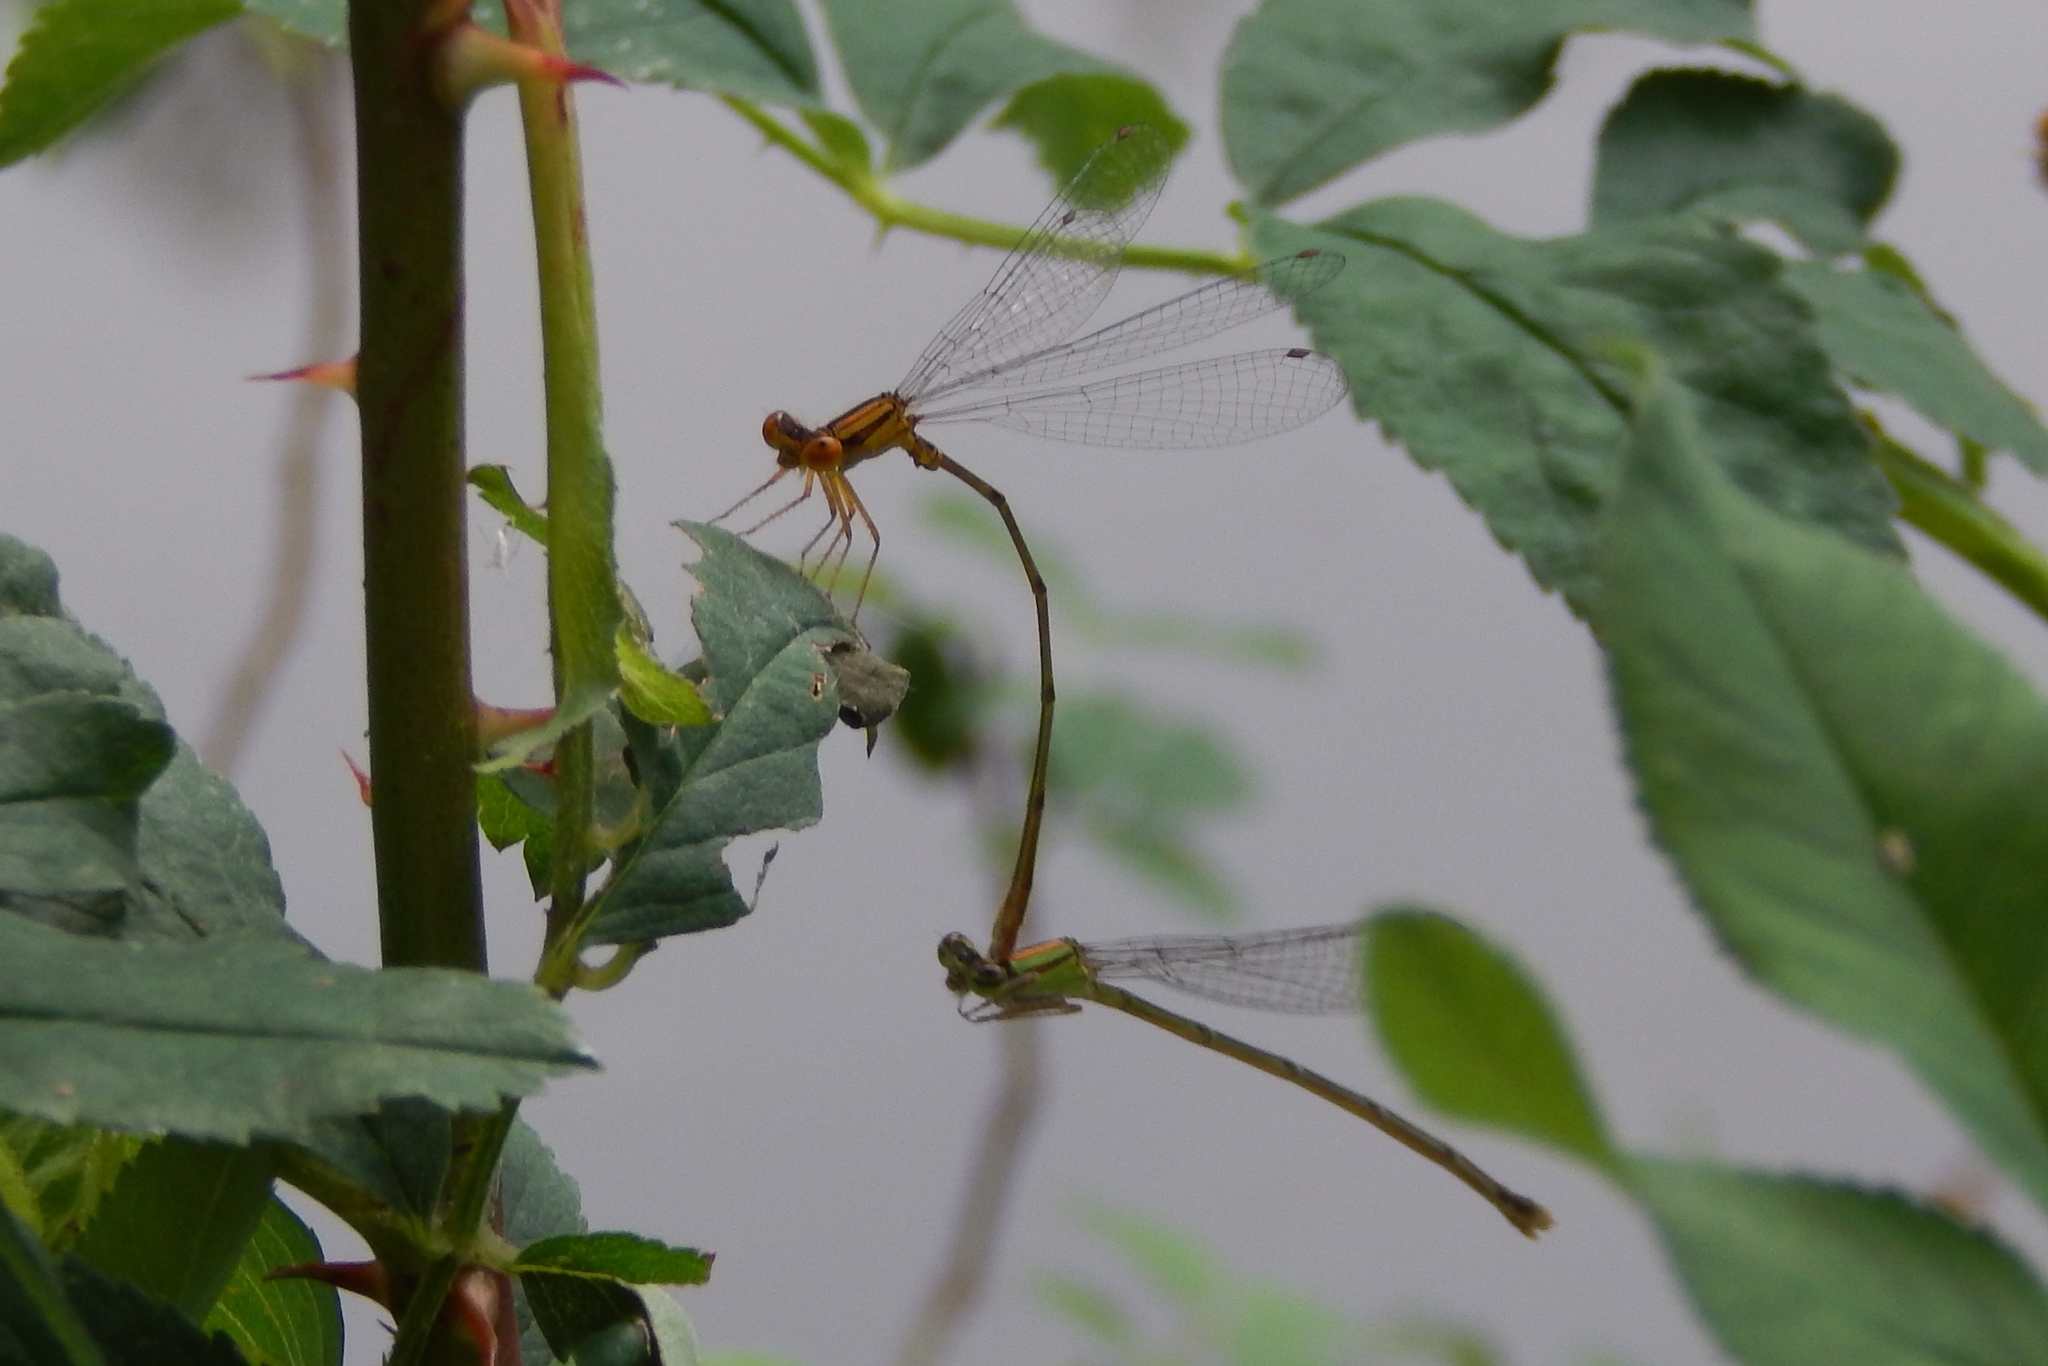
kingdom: Animalia
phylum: Arthropoda
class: Insecta
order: Odonata
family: Coenagrionidae
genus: Enallagma
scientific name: Enallagma signatum
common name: Orange bluet
